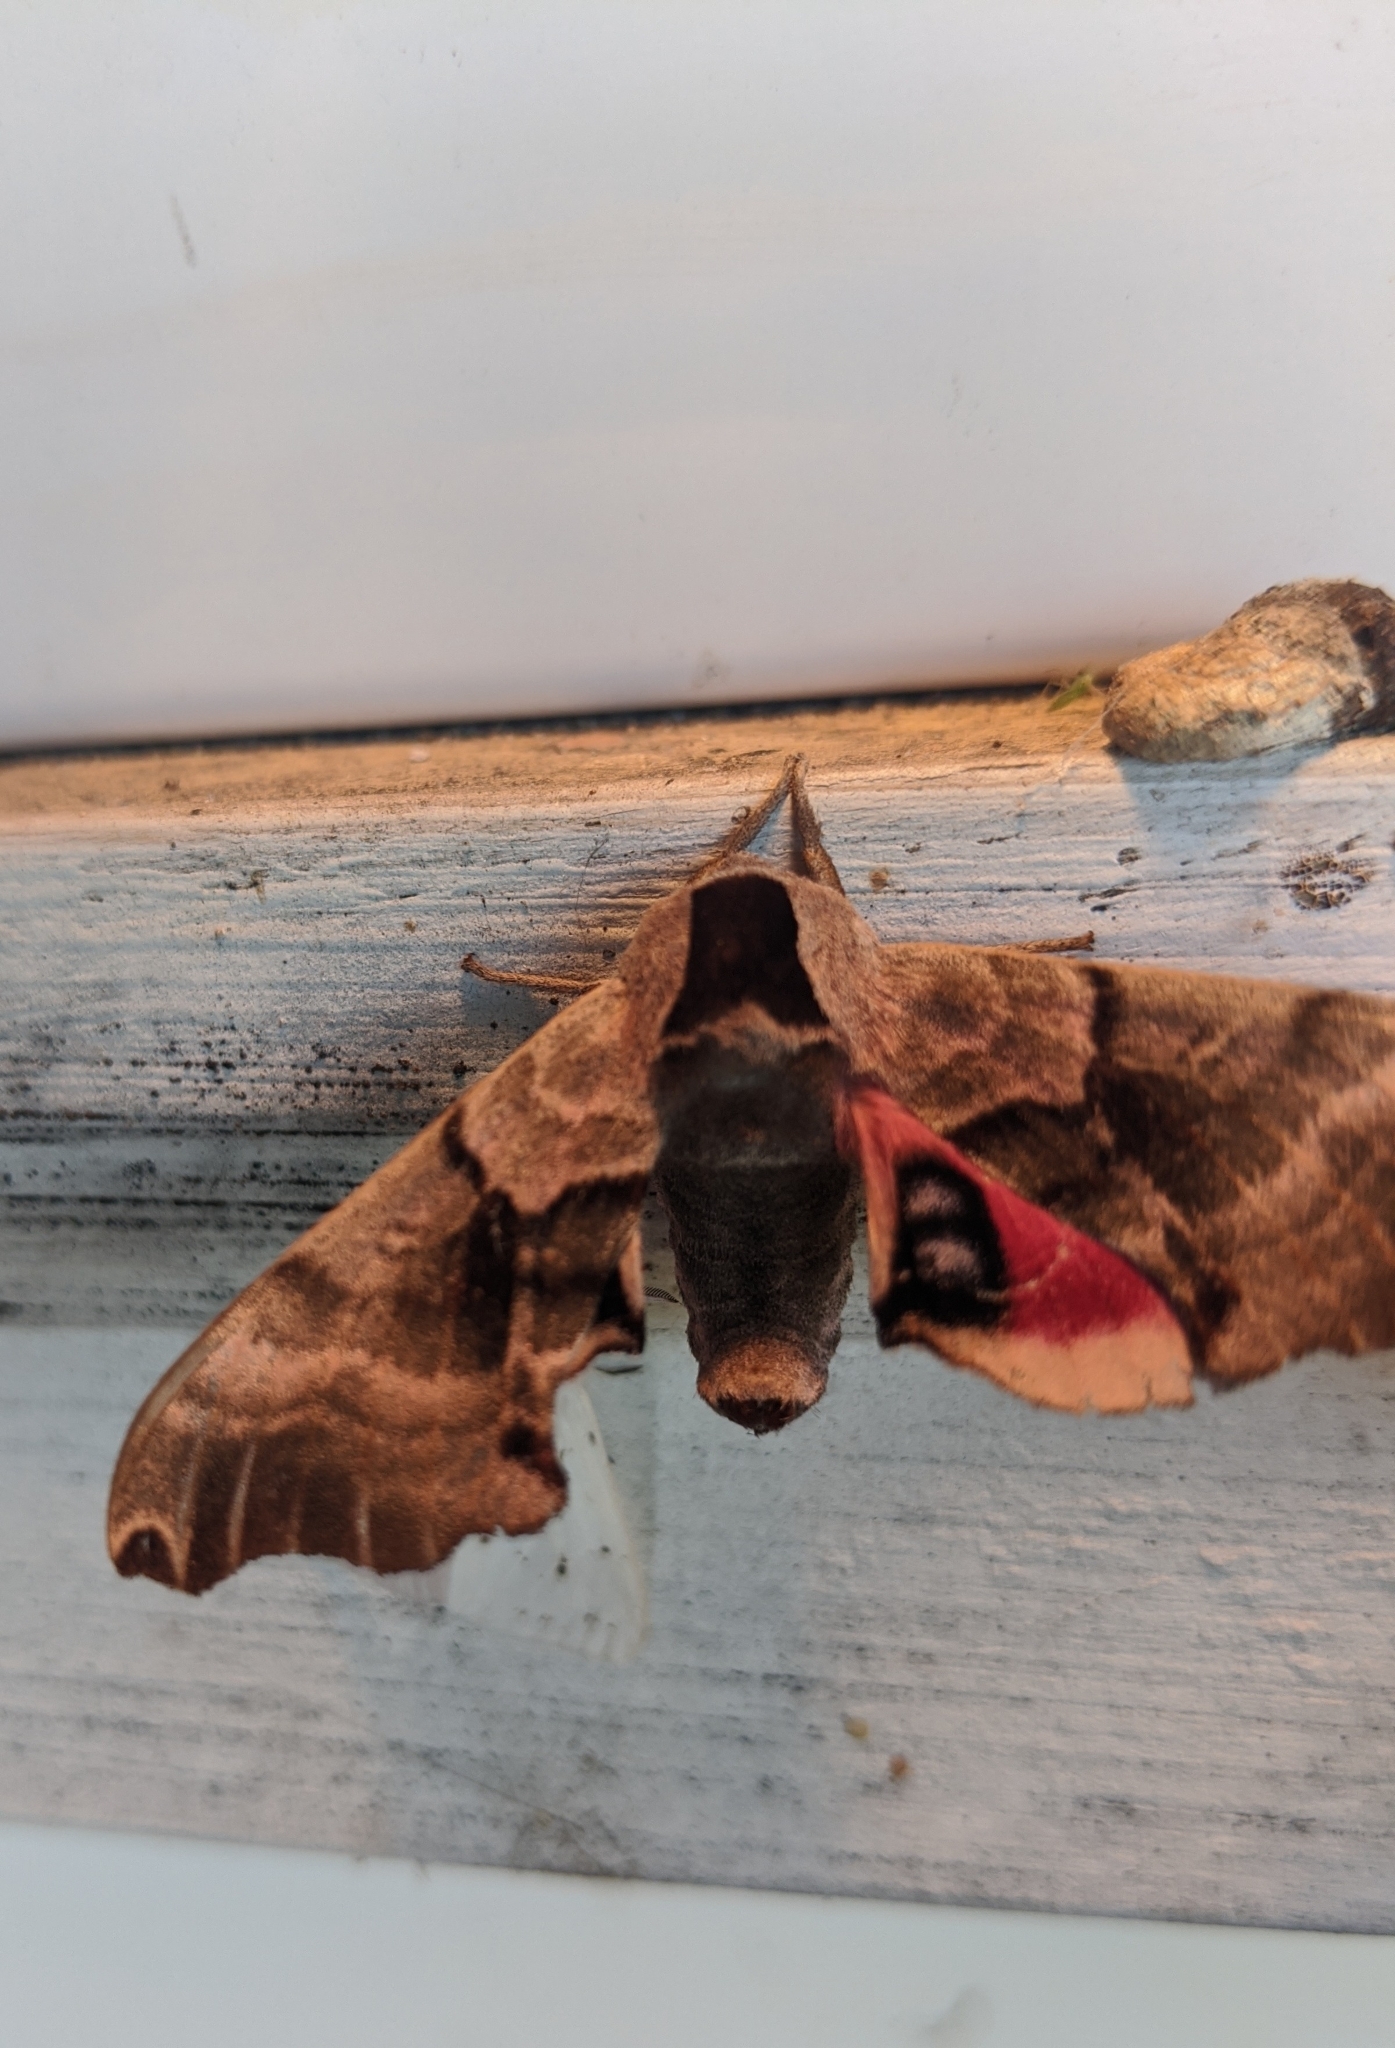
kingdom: Animalia
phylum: Arthropoda
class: Insecta
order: Lepidoptera
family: Sphingidae
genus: Smerinthus
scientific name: Smerinthus jamaicensis
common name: Twin spotted sphinx
